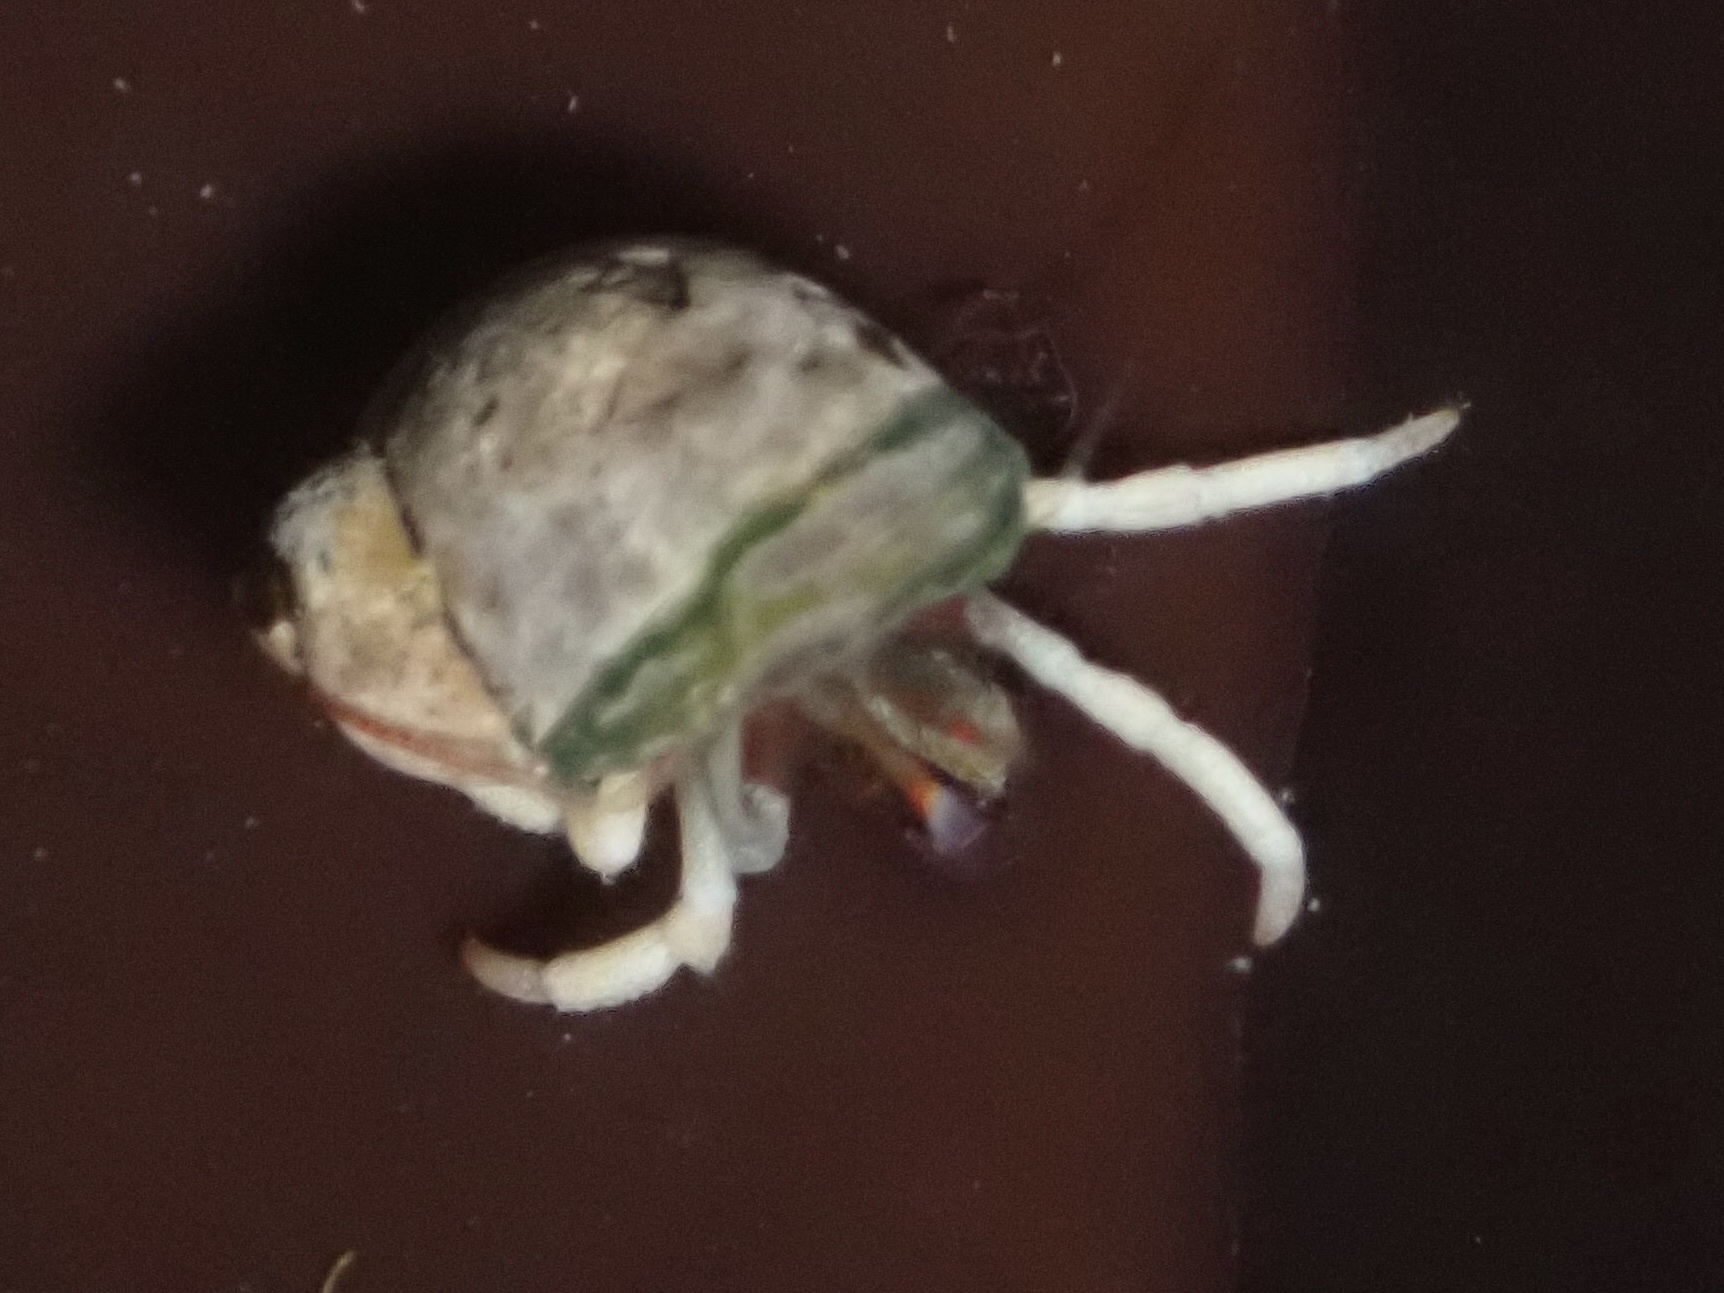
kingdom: Animalia
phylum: Arthropoda
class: Malacostraca
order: Decapoda
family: Paguridae
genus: Pagurus
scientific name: Pagurus granosimanus
